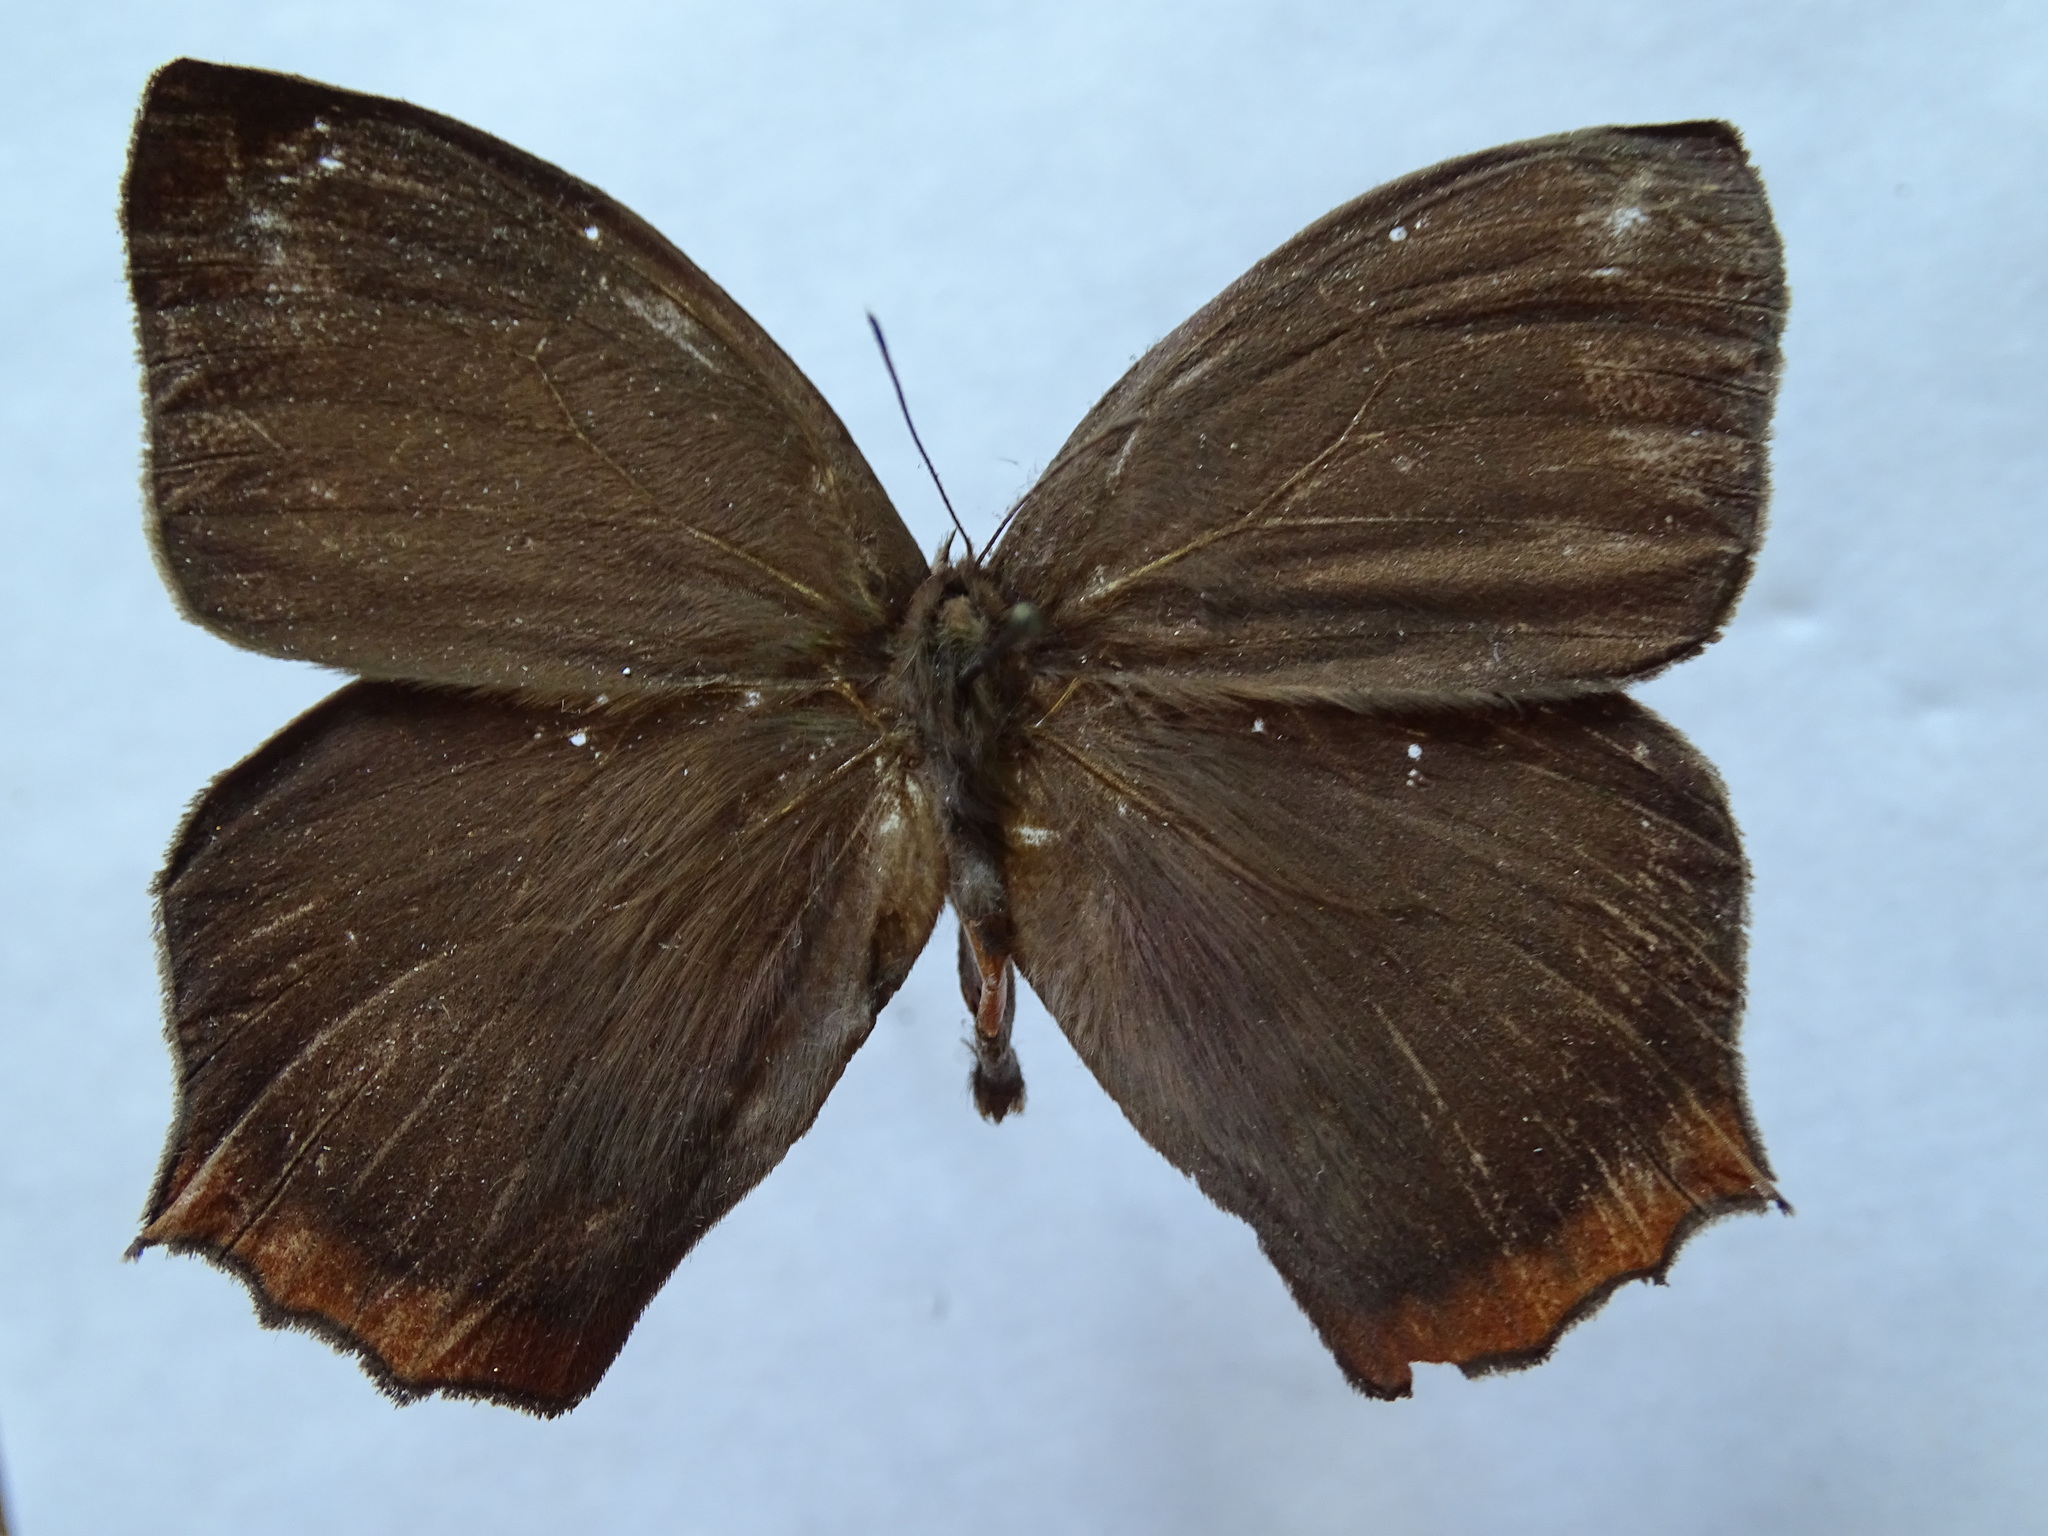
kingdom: Animalia
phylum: Arthropoda
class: Insecta
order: Lepidoptera
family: Nymphalidae
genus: Taygetis
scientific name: Taygetis virgilia
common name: Stub-tailed satyr
